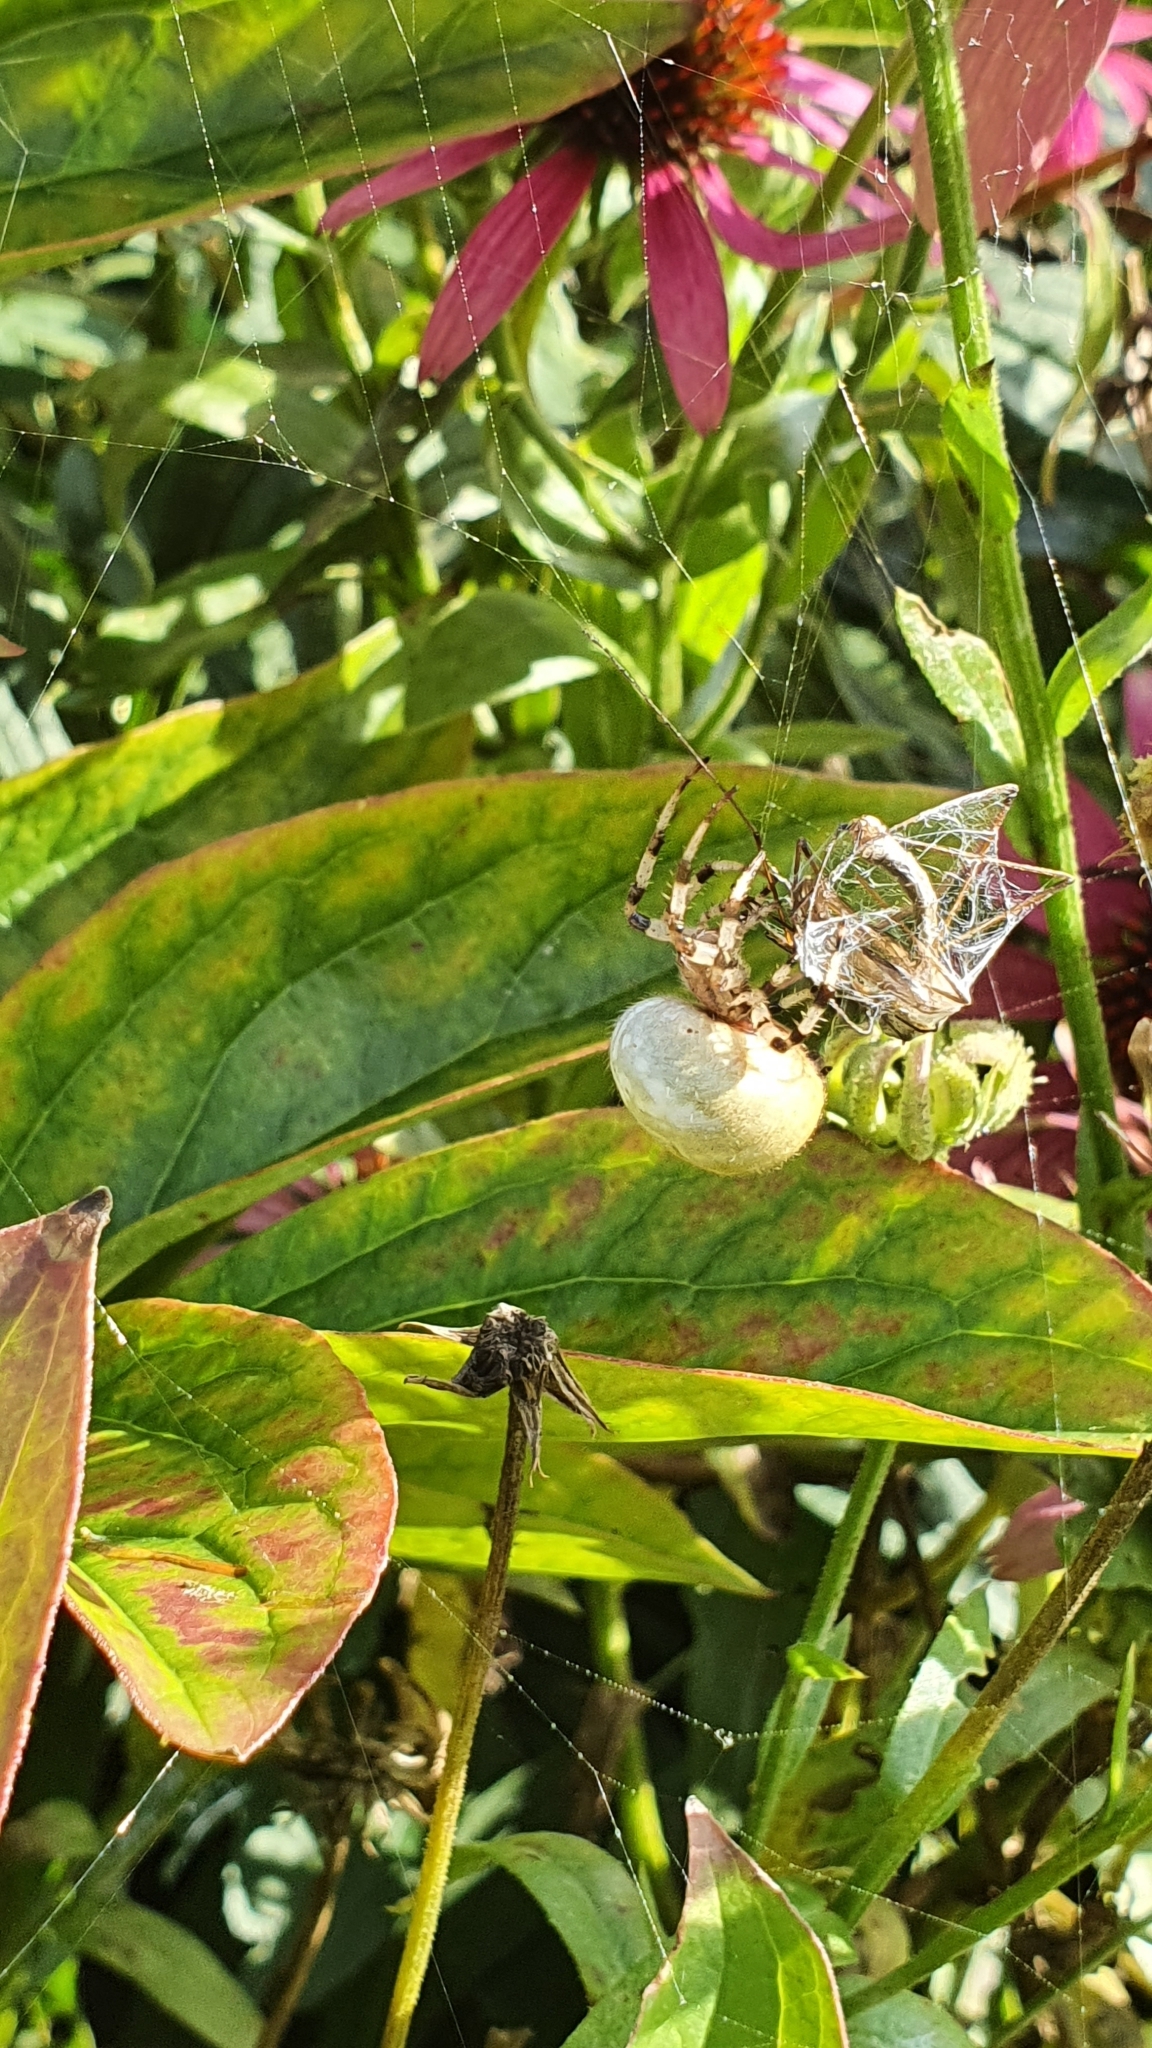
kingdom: Animalia
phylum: Arthropoda
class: Arachnida
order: Araneae
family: Araneidae
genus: Araneus
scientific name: Araneus quadratus
